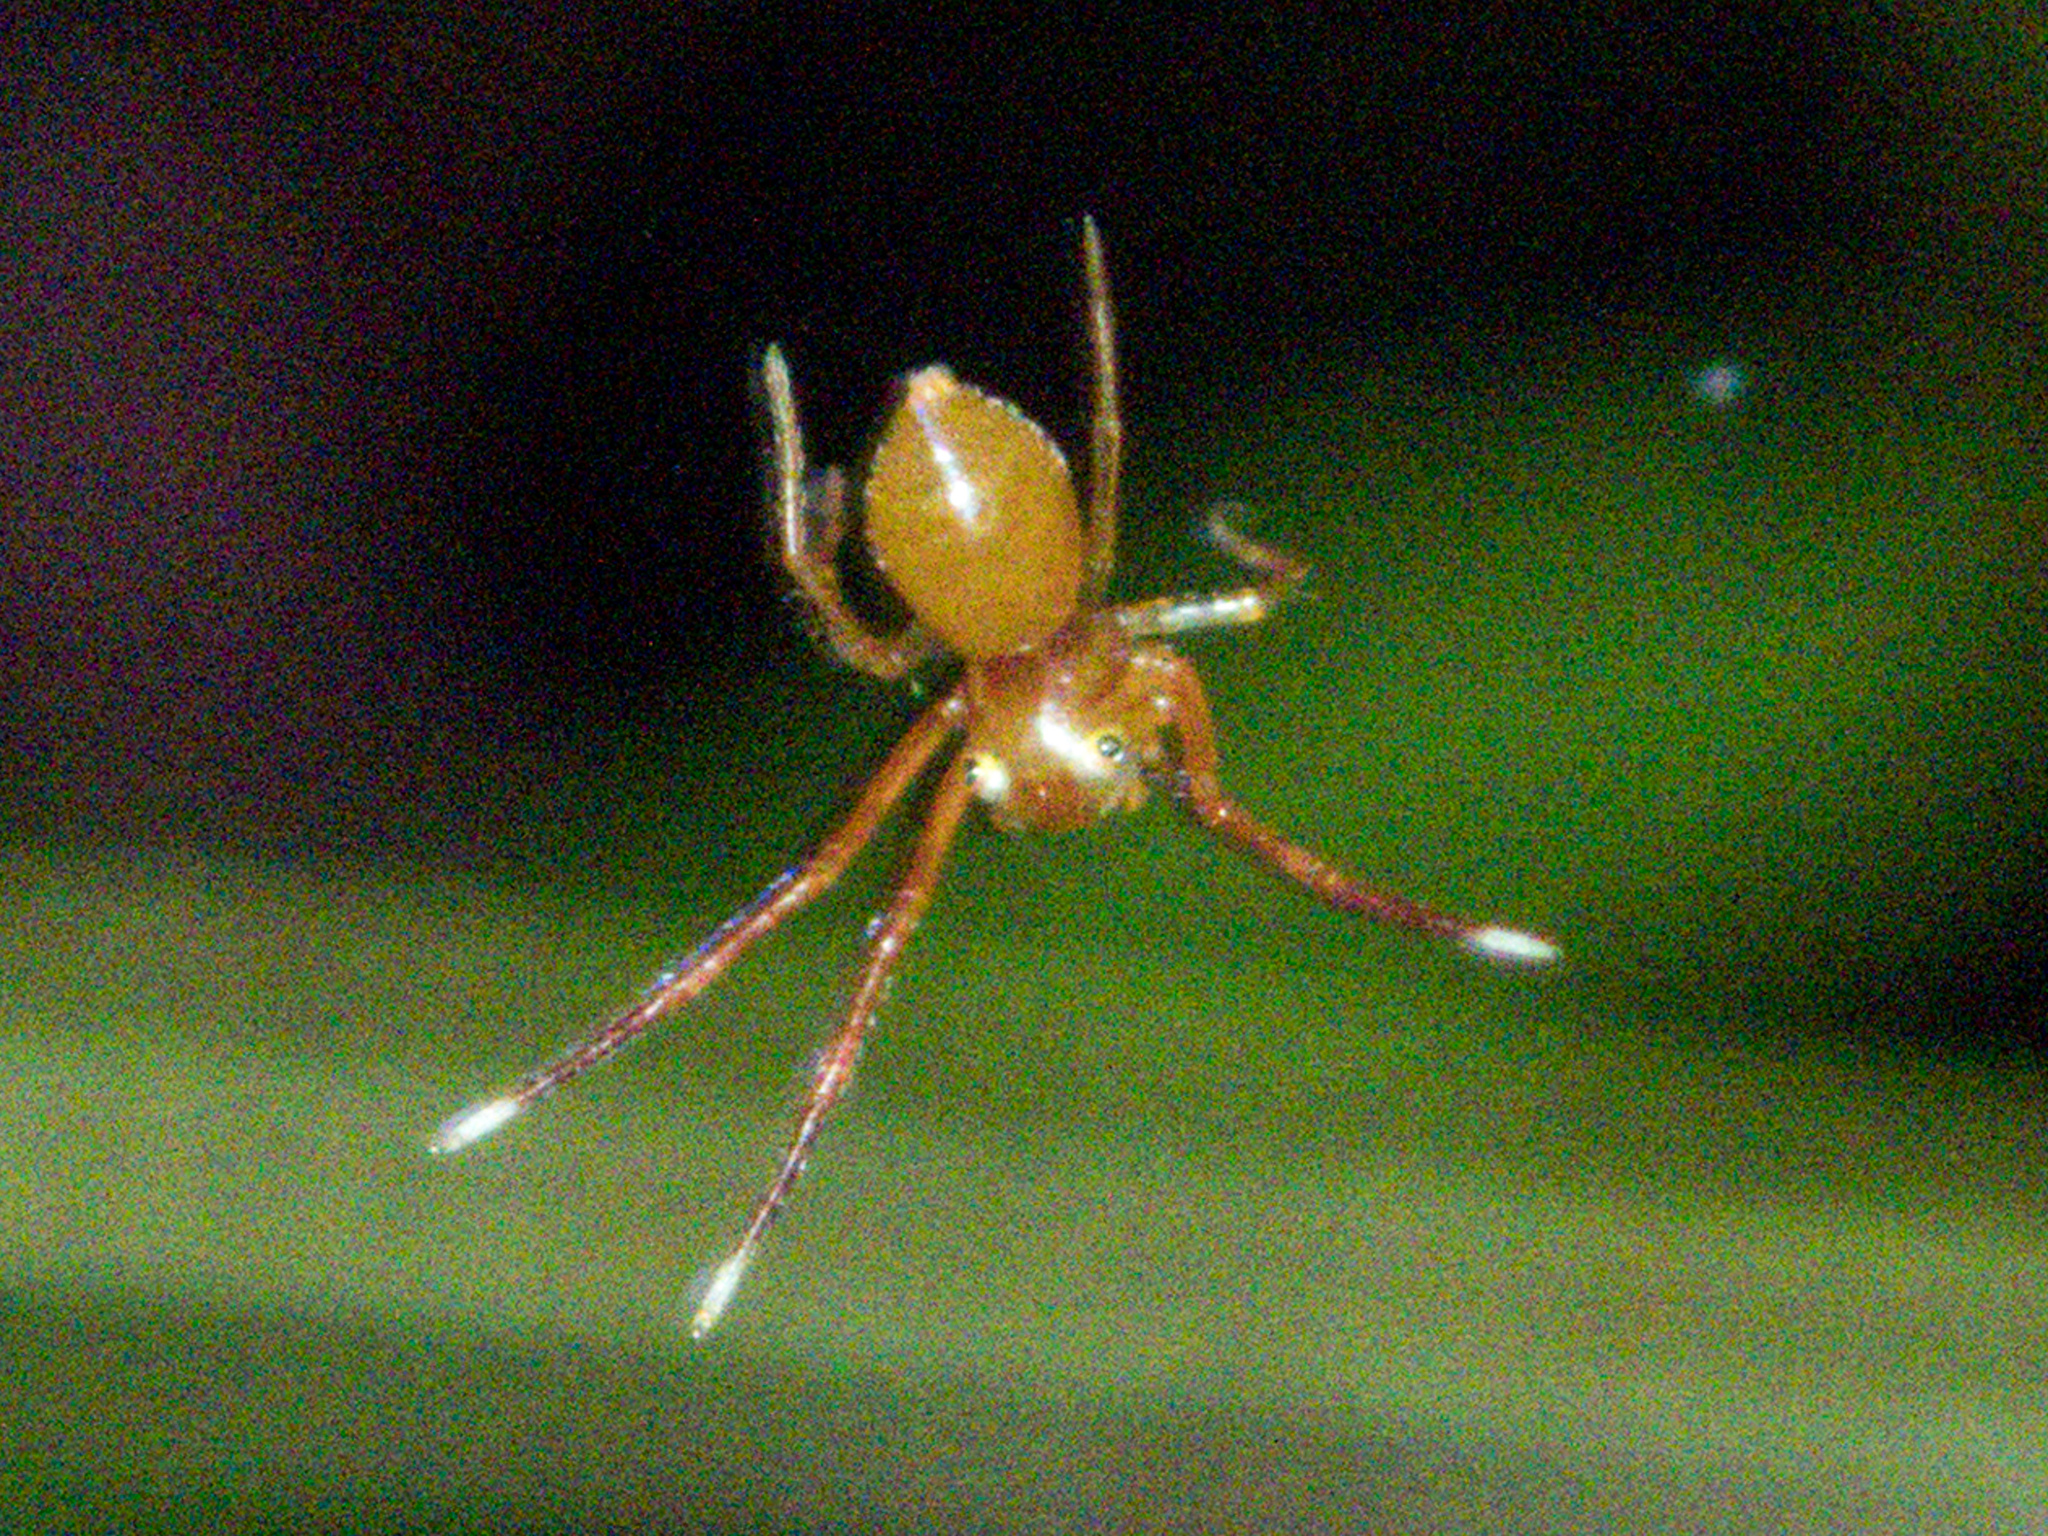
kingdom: Animalia
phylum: Arthropoda
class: Arachnida
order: Araneae
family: Thomisidae
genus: Amyciaea
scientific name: Amyciaea forticeps
